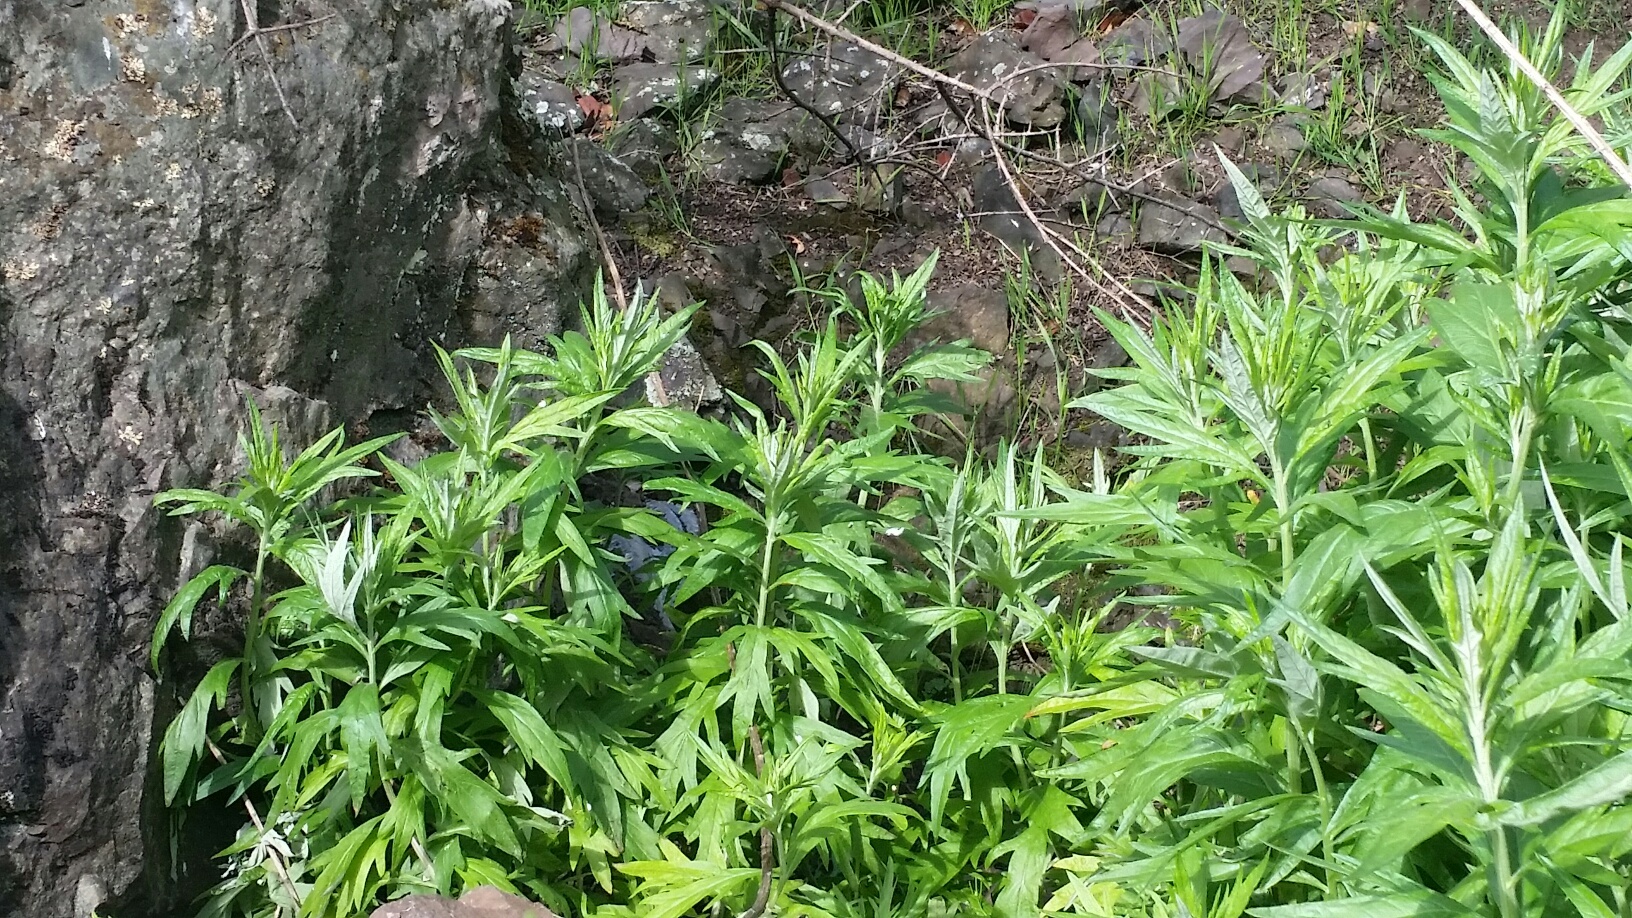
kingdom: Plantae
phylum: Tracheophyta
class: Magnoliopsida
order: Asterales
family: Asteraceae
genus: Artemisia
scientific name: Artemisia douglasiana
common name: Northwest mugwort
